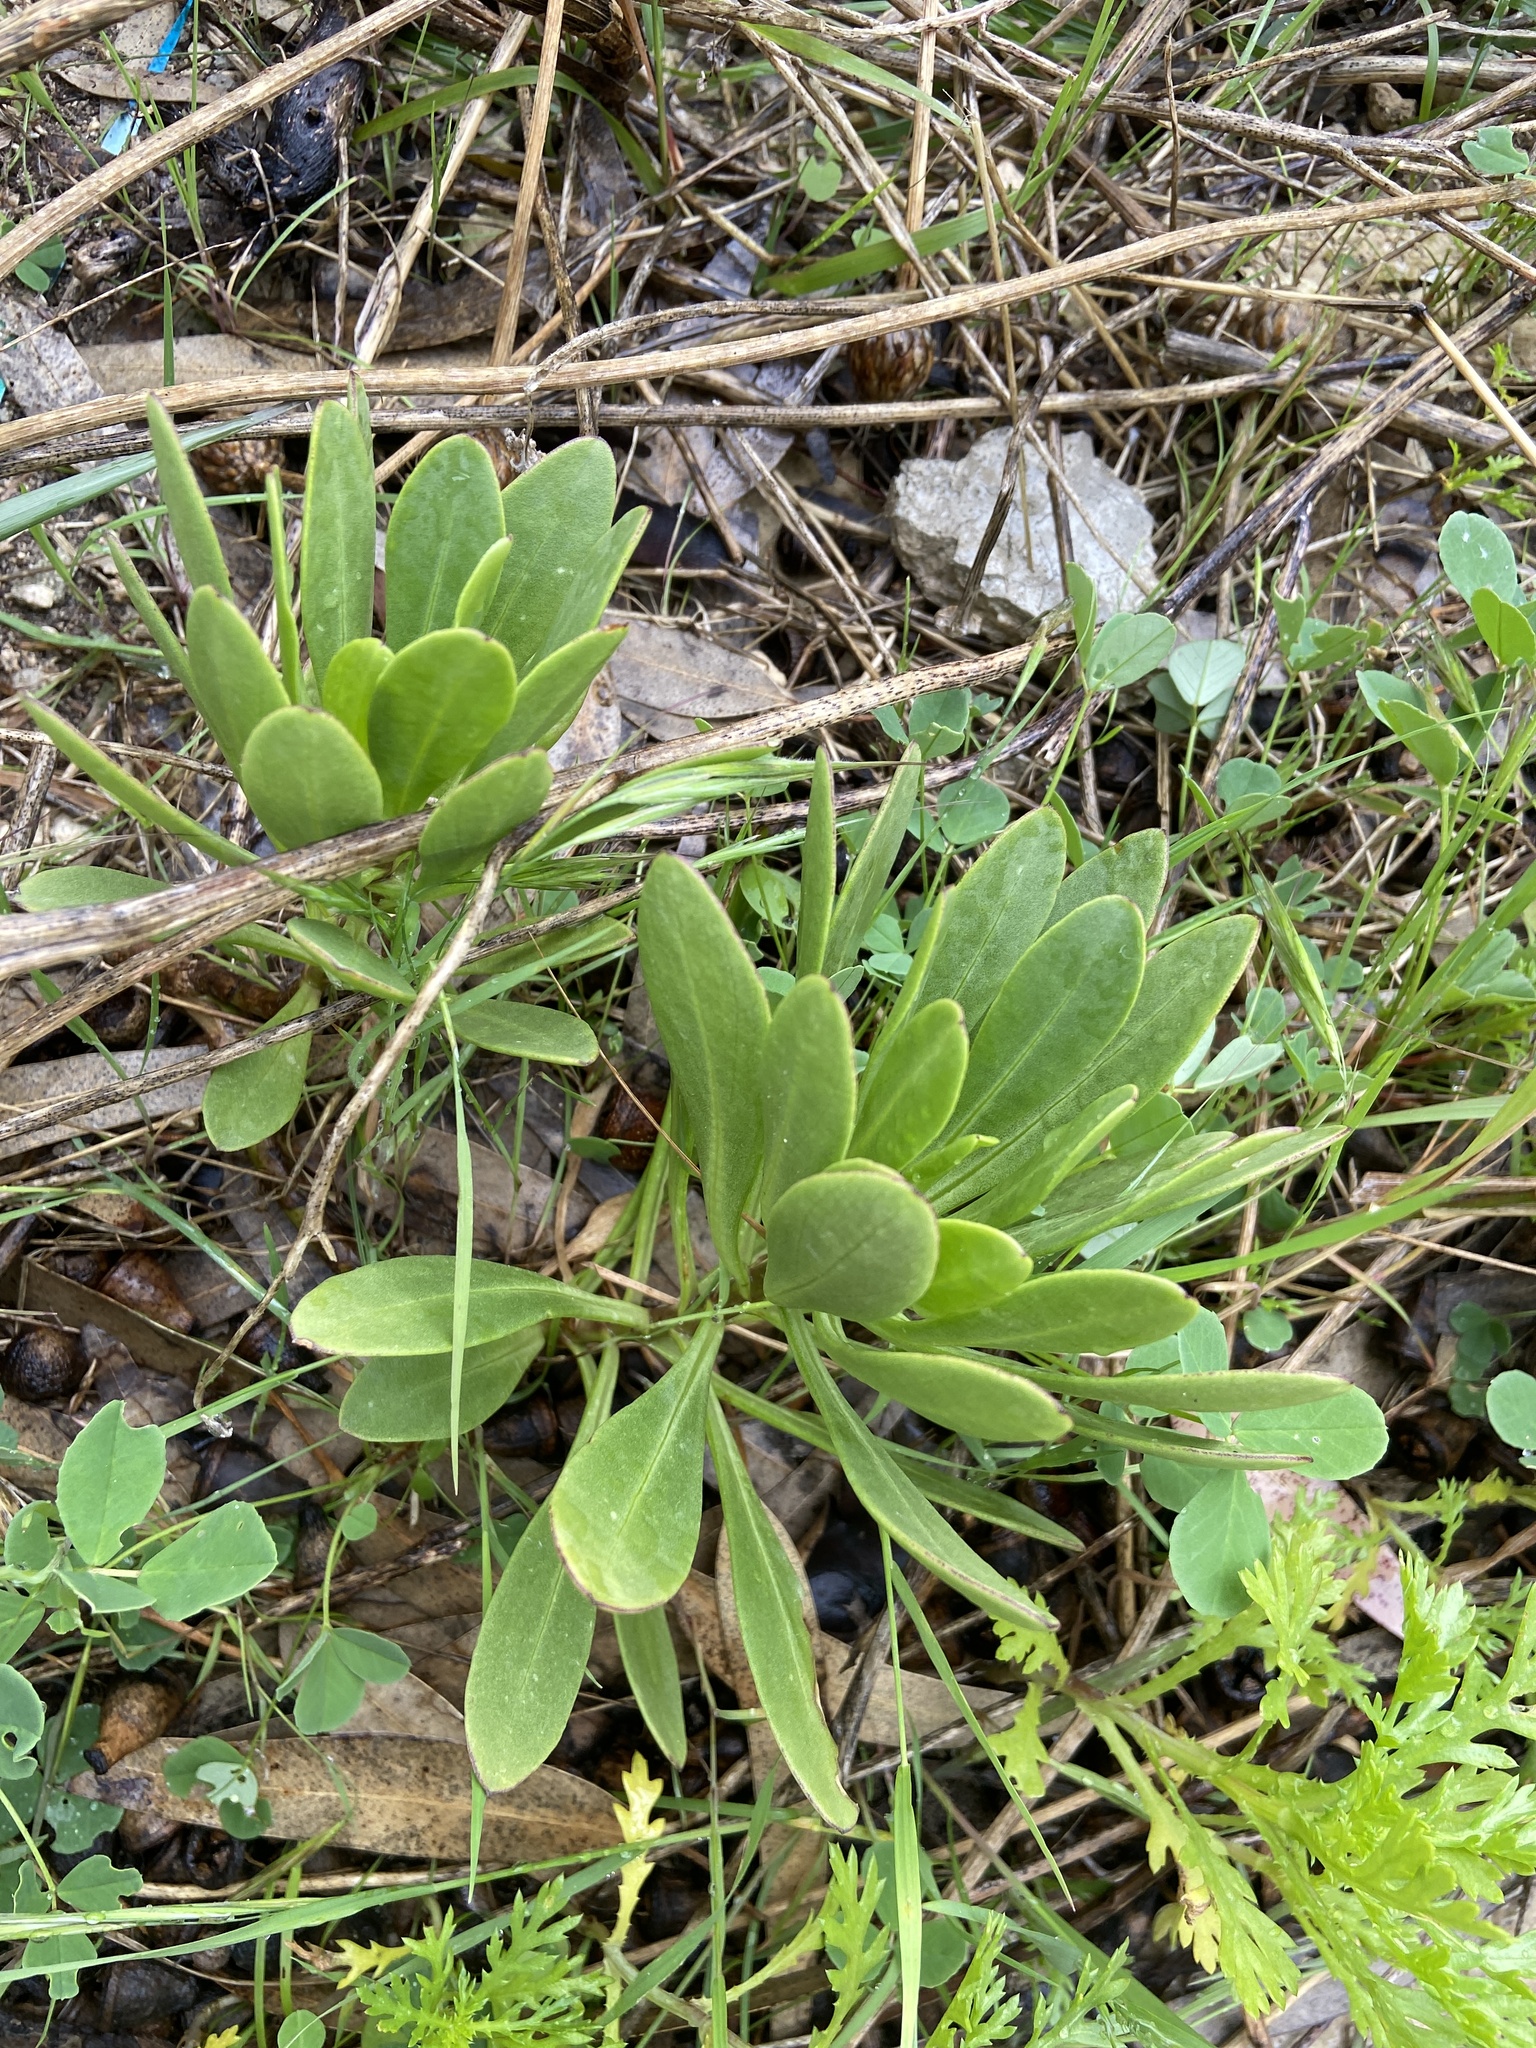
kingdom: Plantae
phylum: Tracheophyta
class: Magnoliopsida
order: Asterales
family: Asteraceae
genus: Cheirolophus
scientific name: Cheirolophus crassifolius
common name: Maltese centaury
